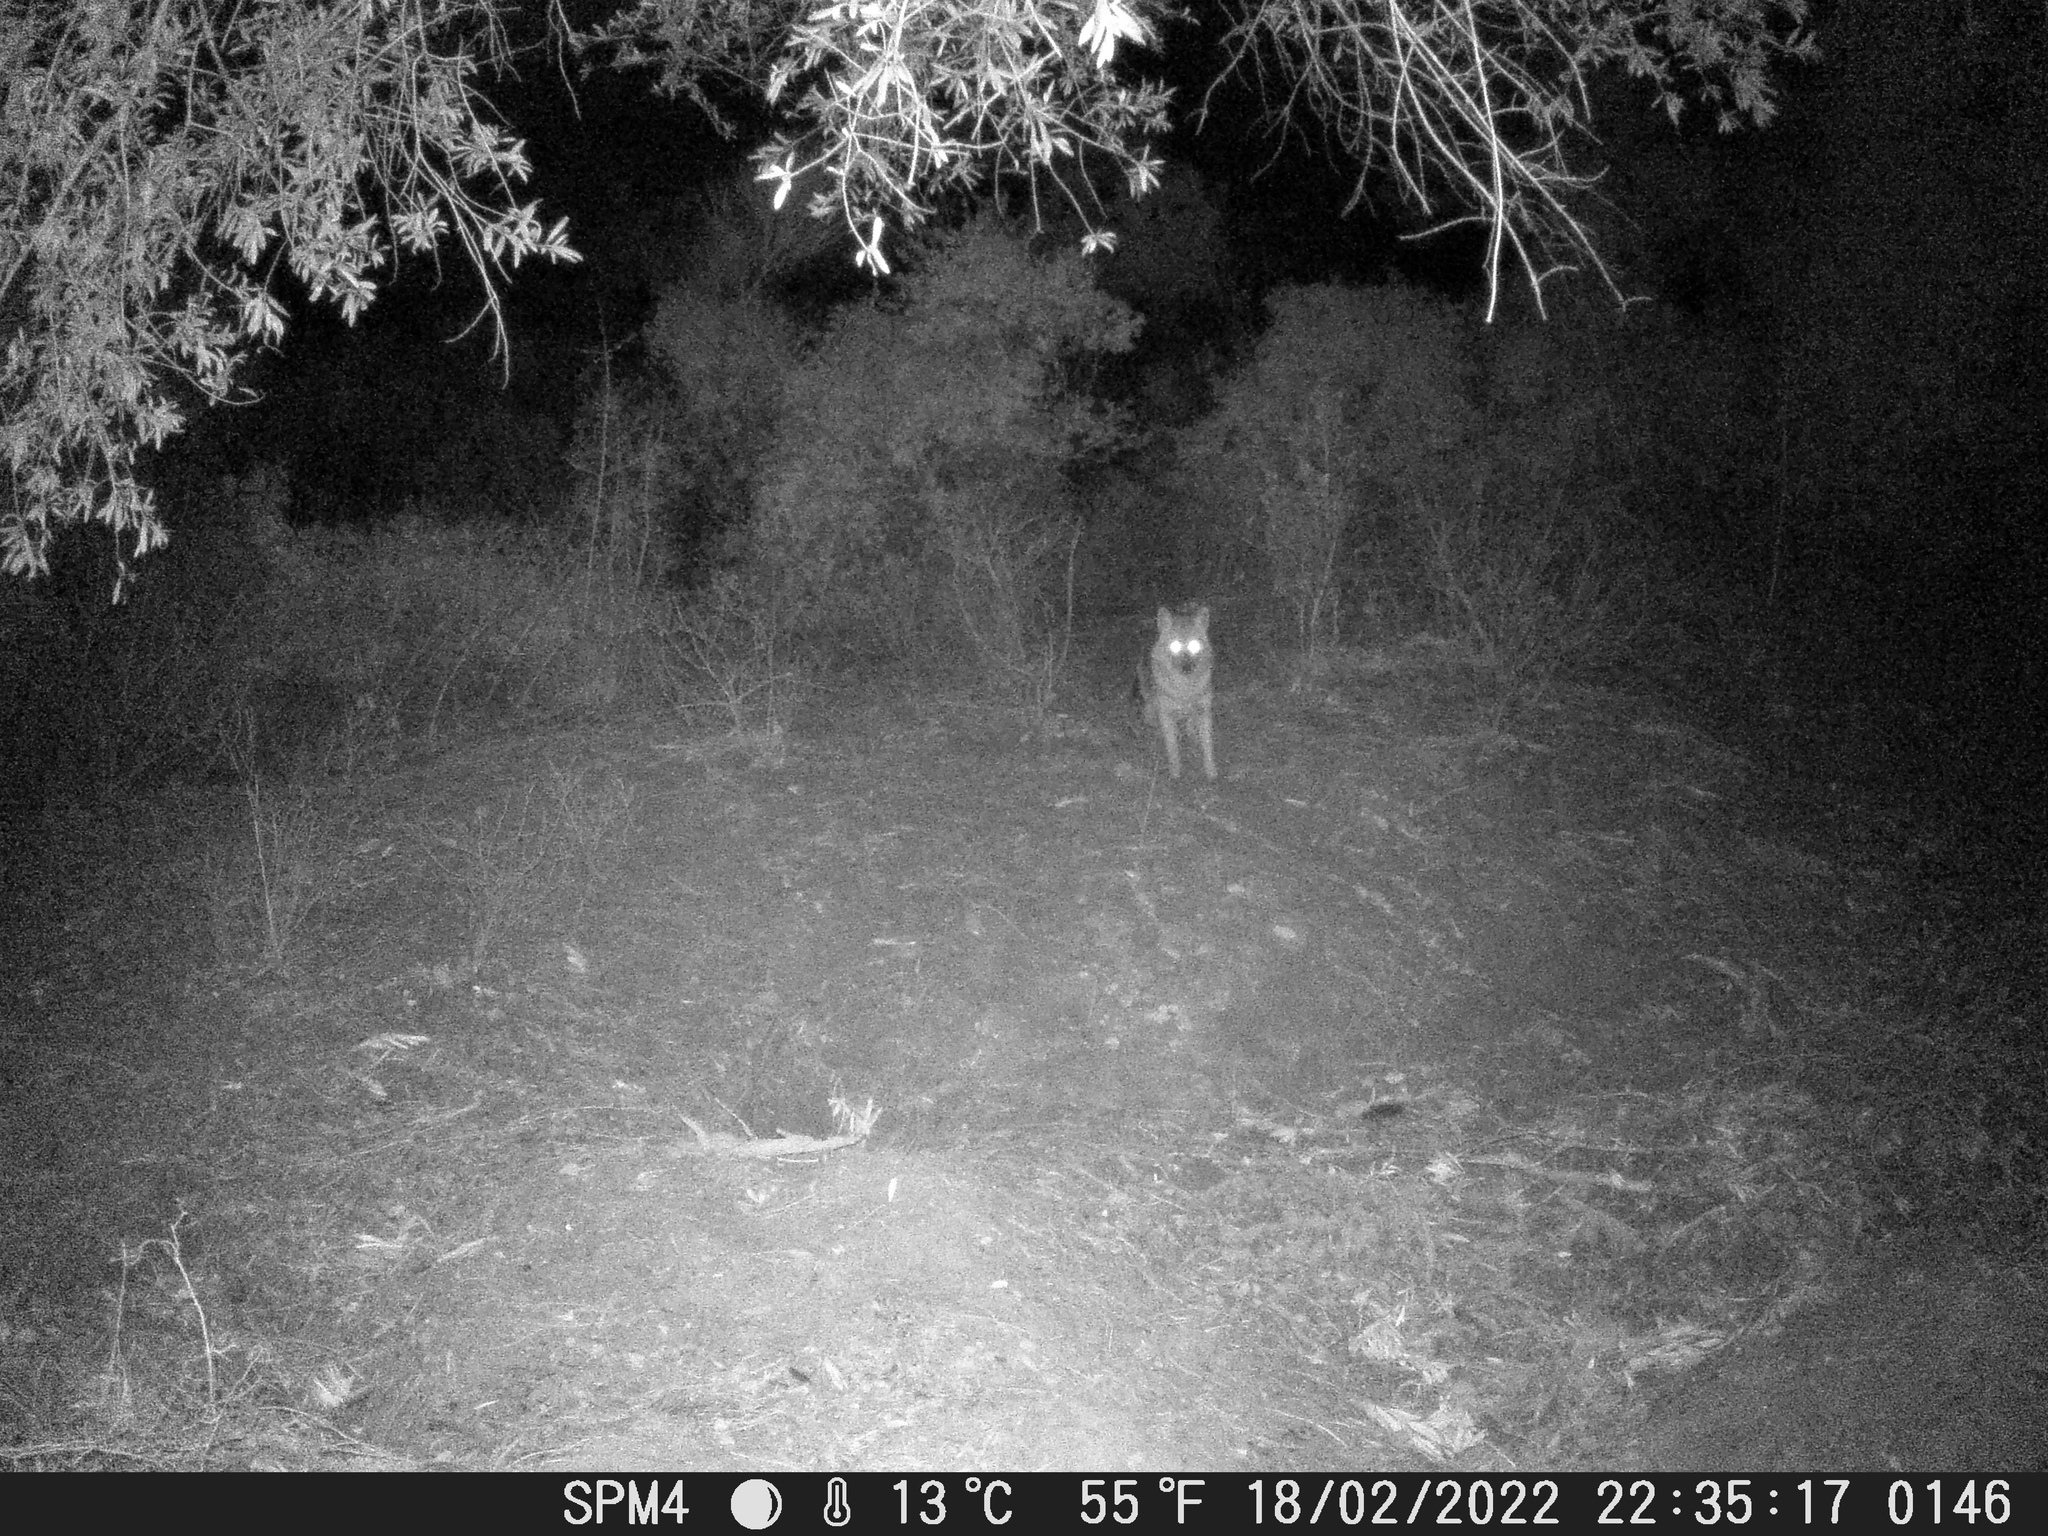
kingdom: Animalia
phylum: Chordata
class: Mammalia
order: Carnivora
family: Canidae
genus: Canis
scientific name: Canis aureus
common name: Golden jackal
